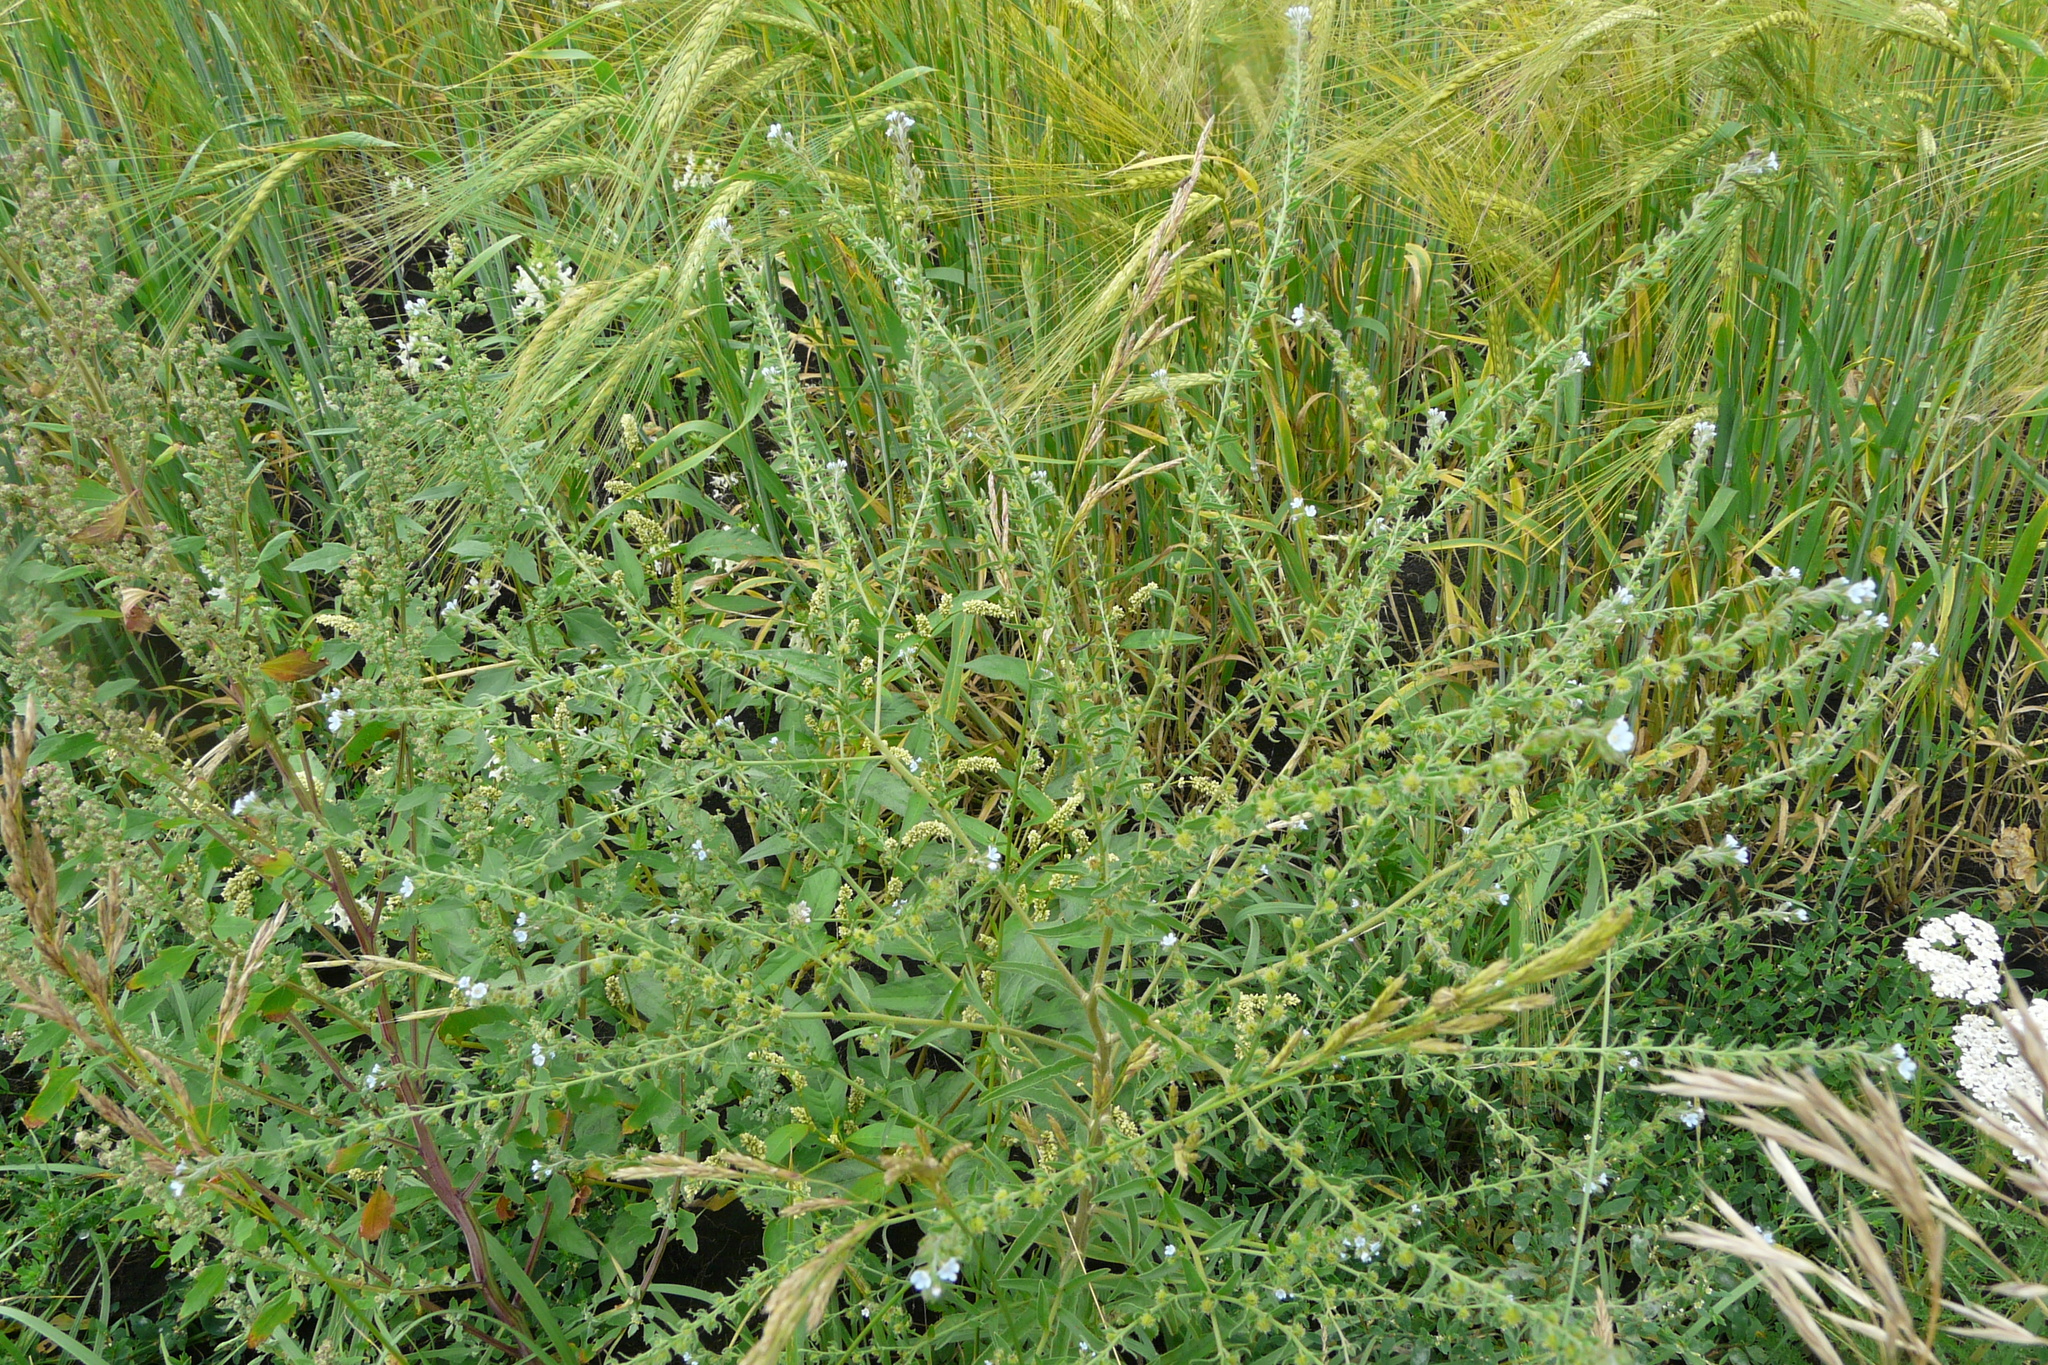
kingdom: Plantae
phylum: Tracheophyta
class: Magnoliopsida
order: Boraginales
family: Boraginaceae
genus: Lappula
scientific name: Lappula squarrosa
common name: European stickseed
